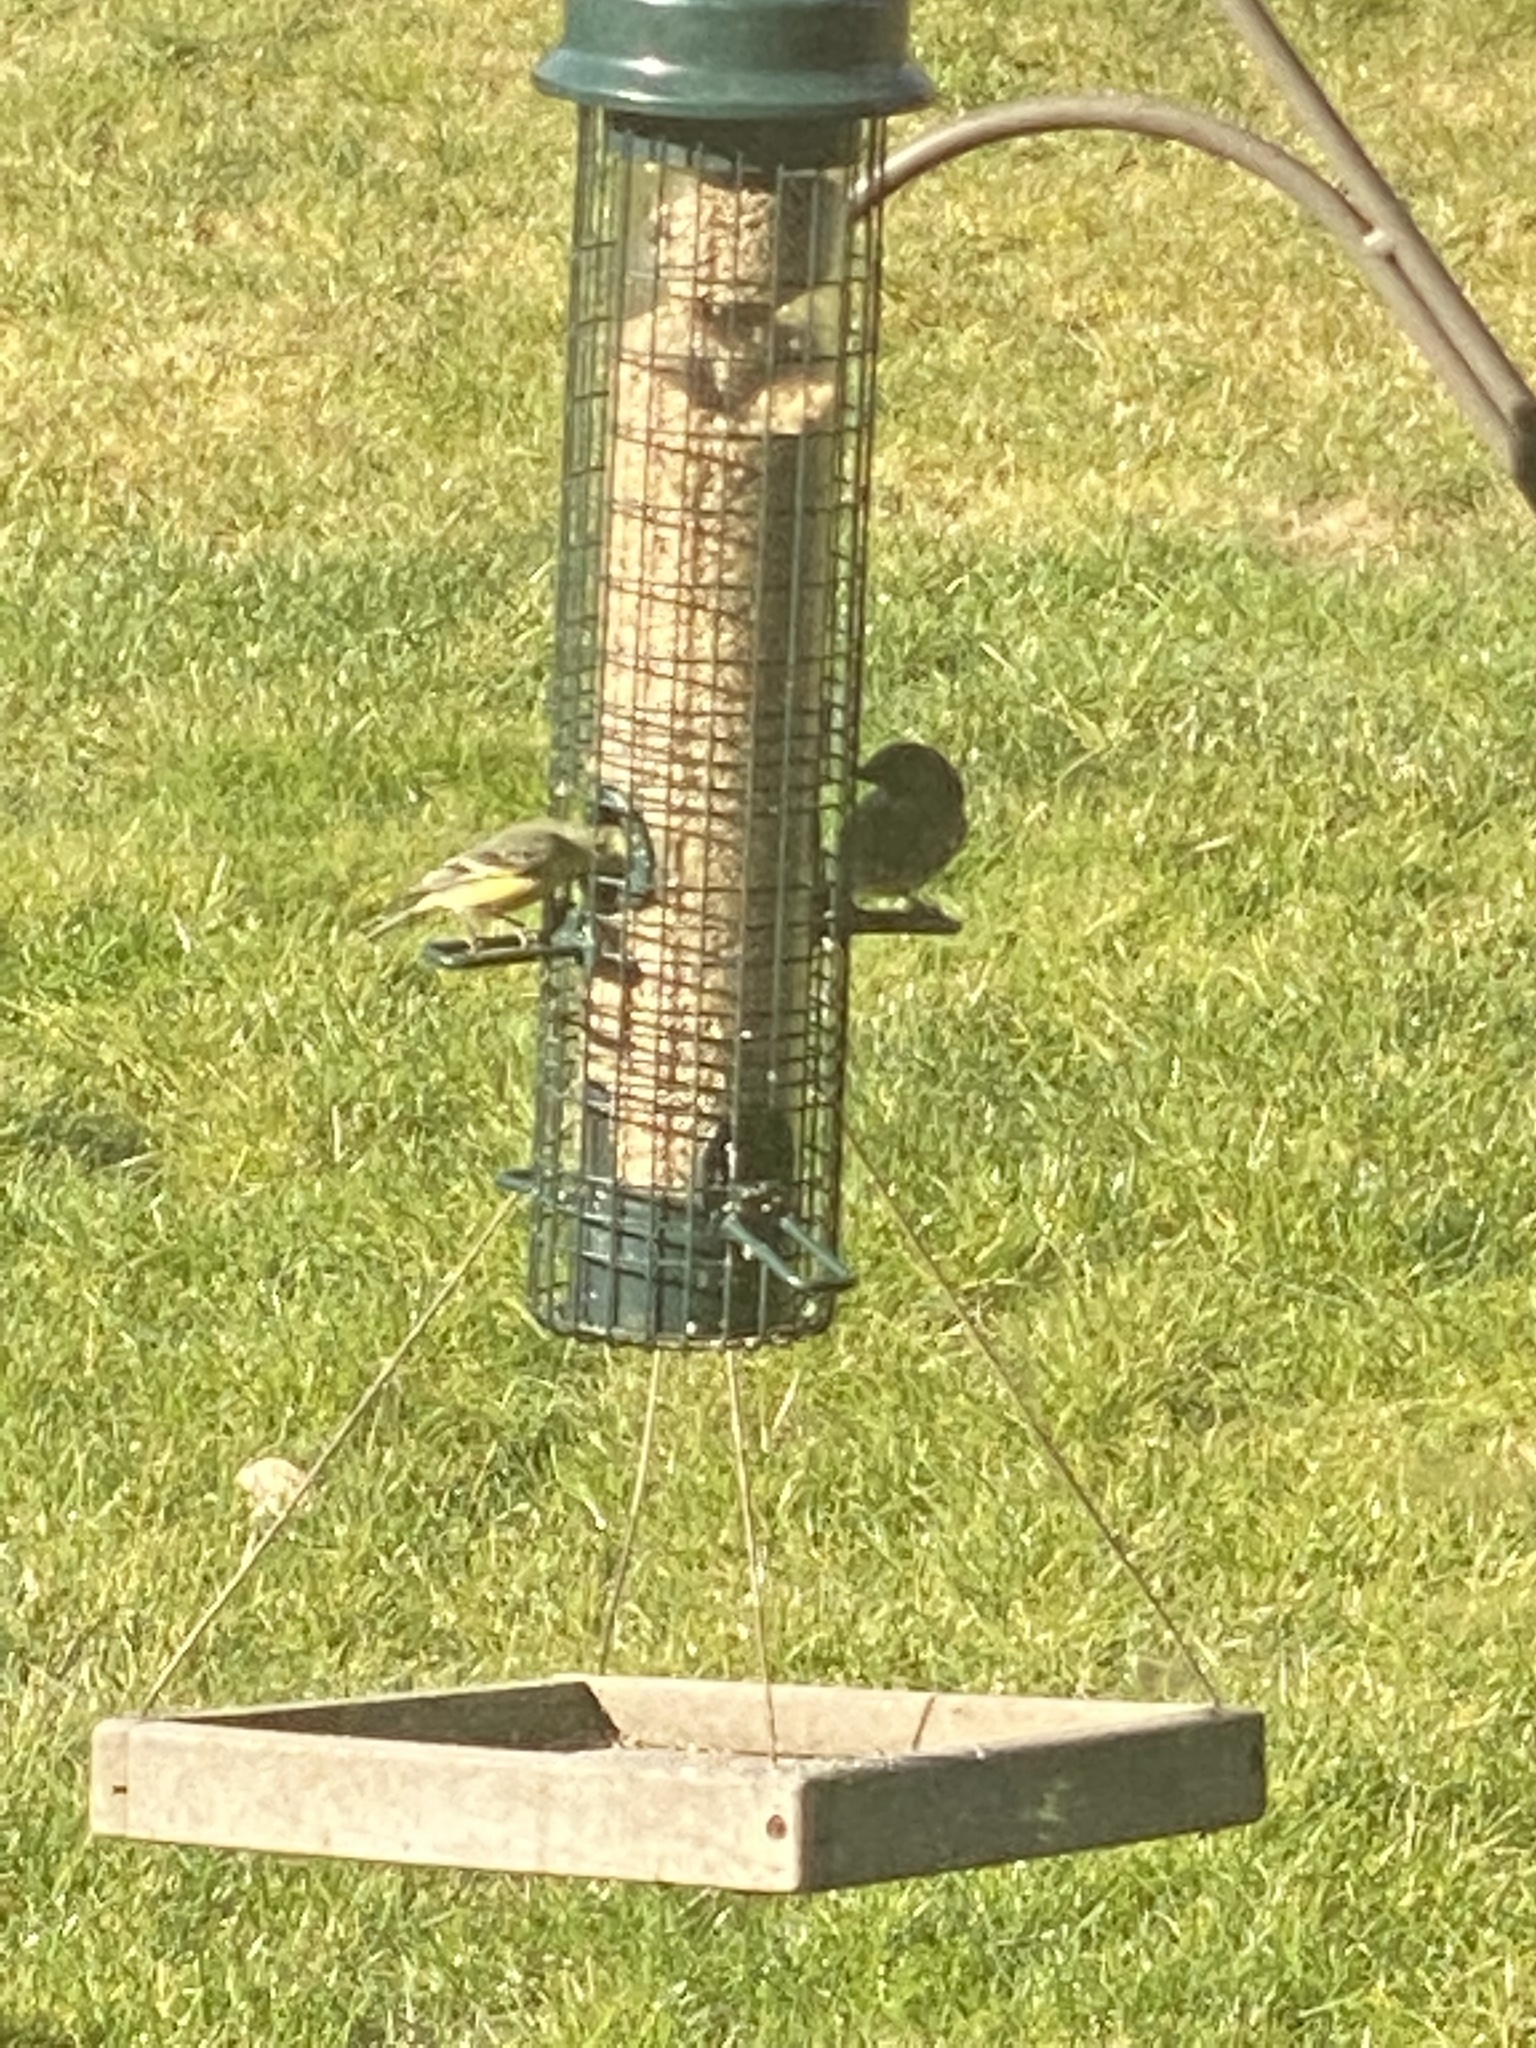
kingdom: Animalia
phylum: Chordata
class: Aves
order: Passeriformes
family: Fringillidae
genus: Spinus
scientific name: Spinus psaltria
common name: Lesser goldfinch
